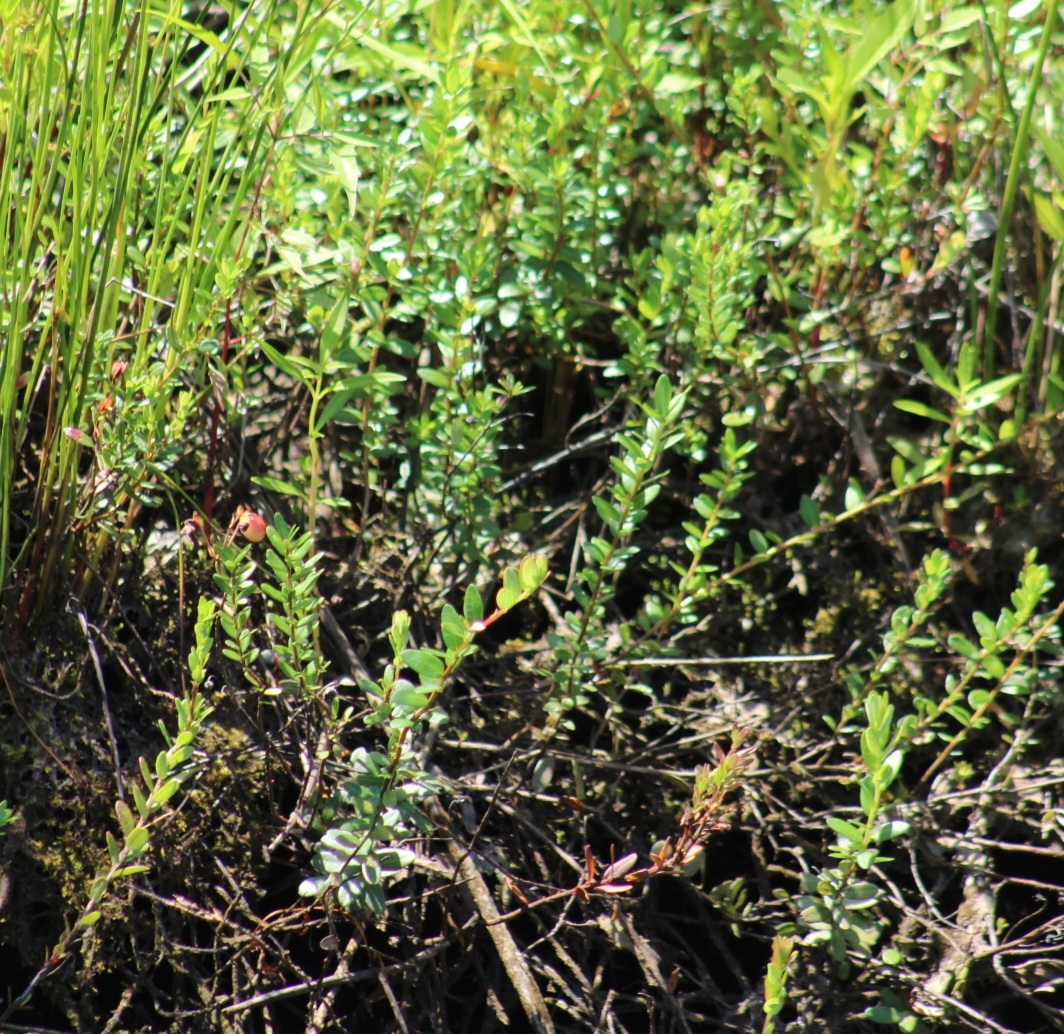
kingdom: Plantae
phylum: Tracheophyta
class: Magnoliopsida
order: Ericales
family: Ericaceae
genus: Vaccinium
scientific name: Vaccinium macrocarpon
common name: American cranberry
